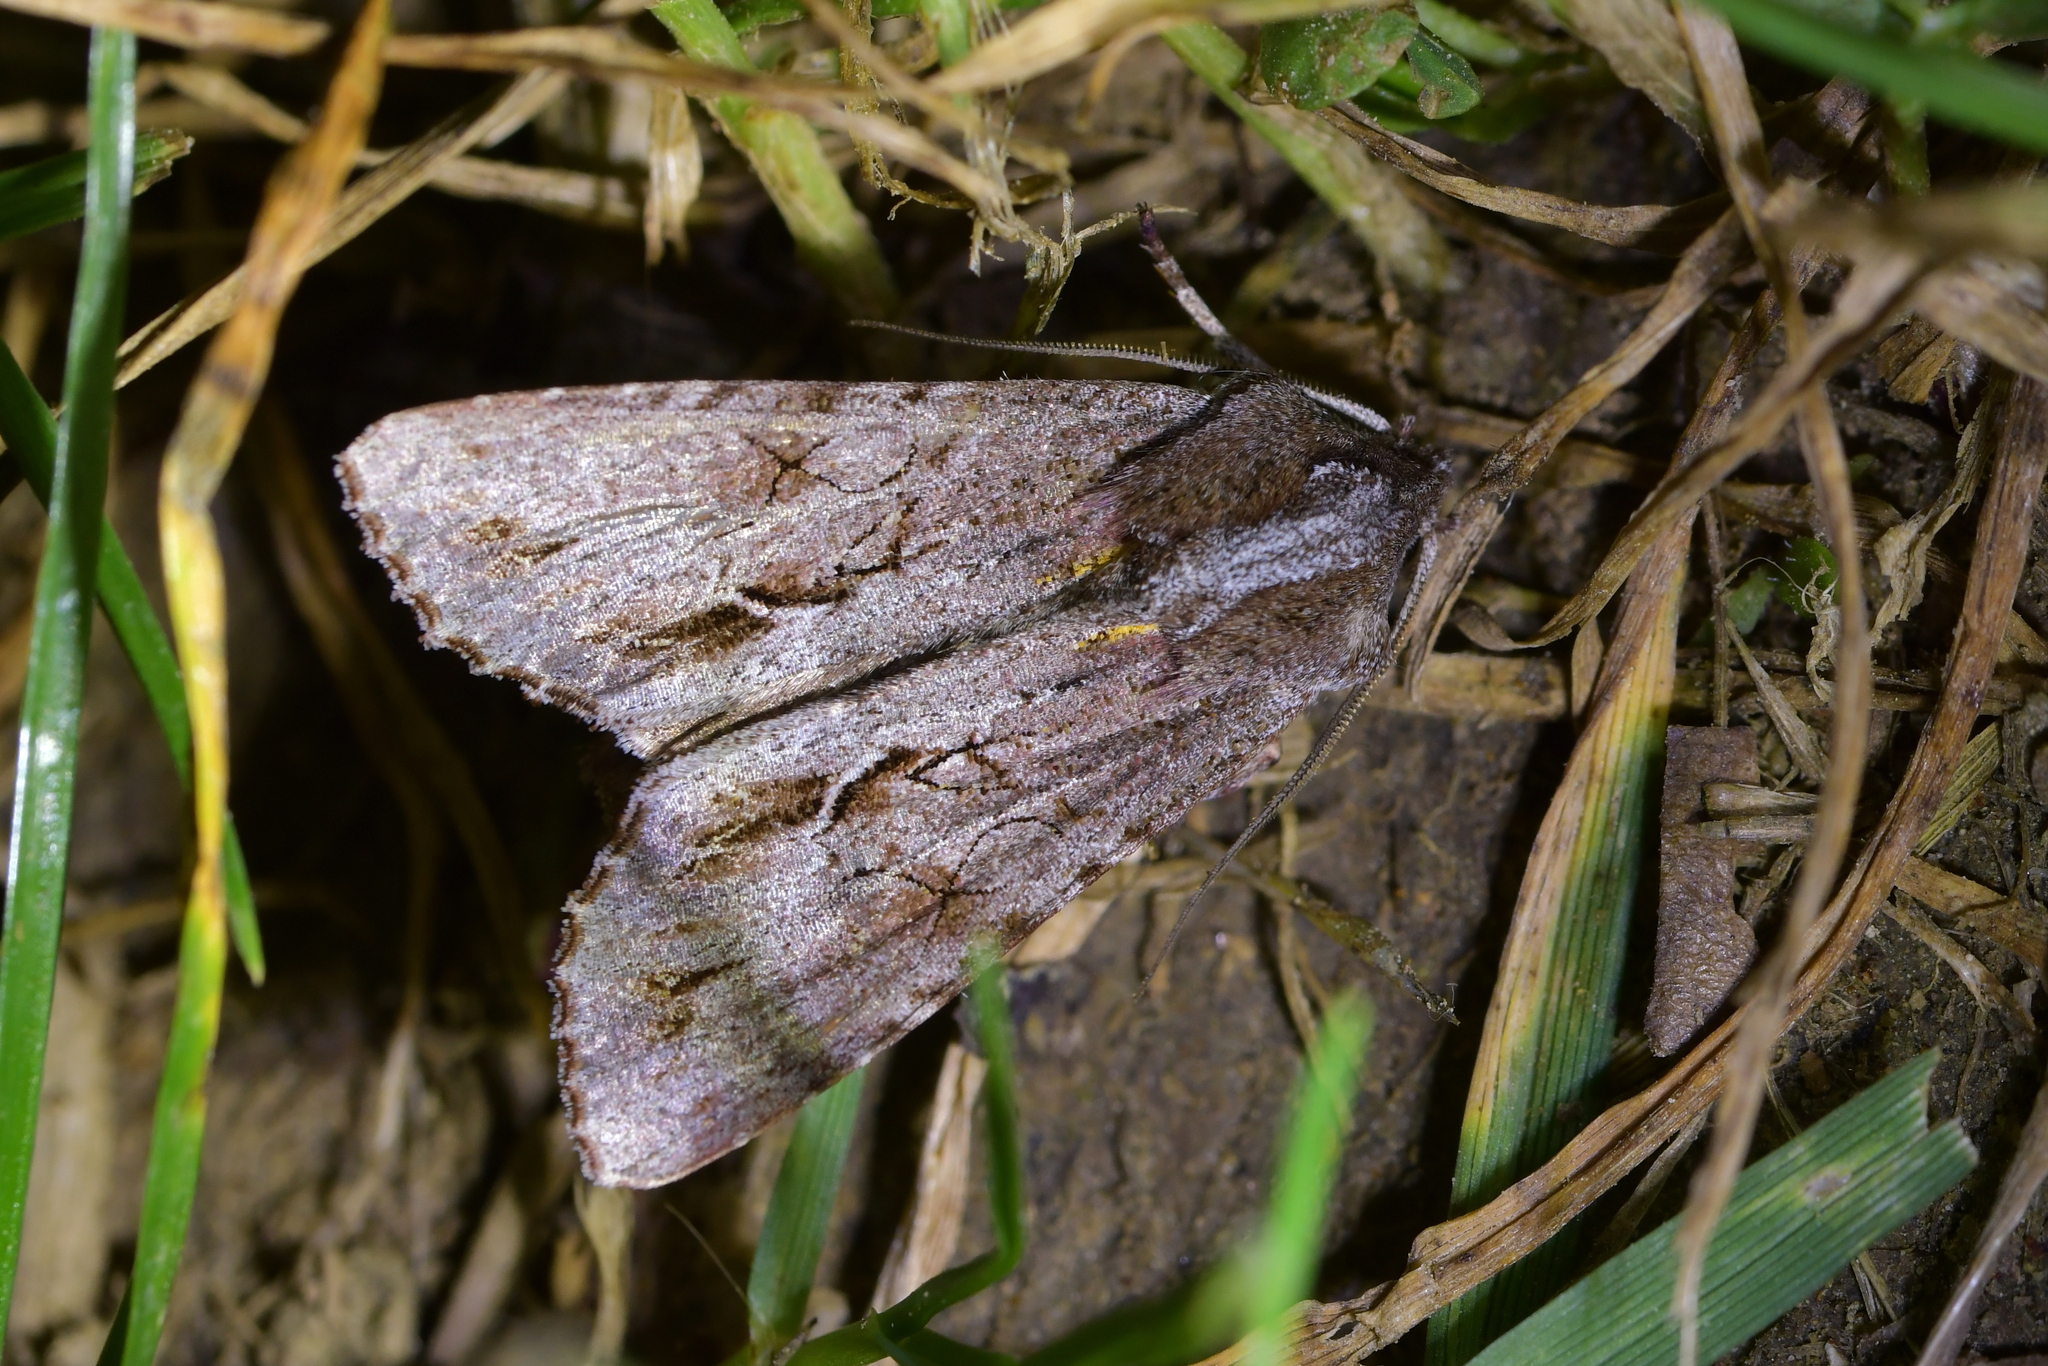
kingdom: Animalia
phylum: Arthropoda
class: Insecta
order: Lepidoptera
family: Noctuidae
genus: Ichneutica
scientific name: Ichneutica
